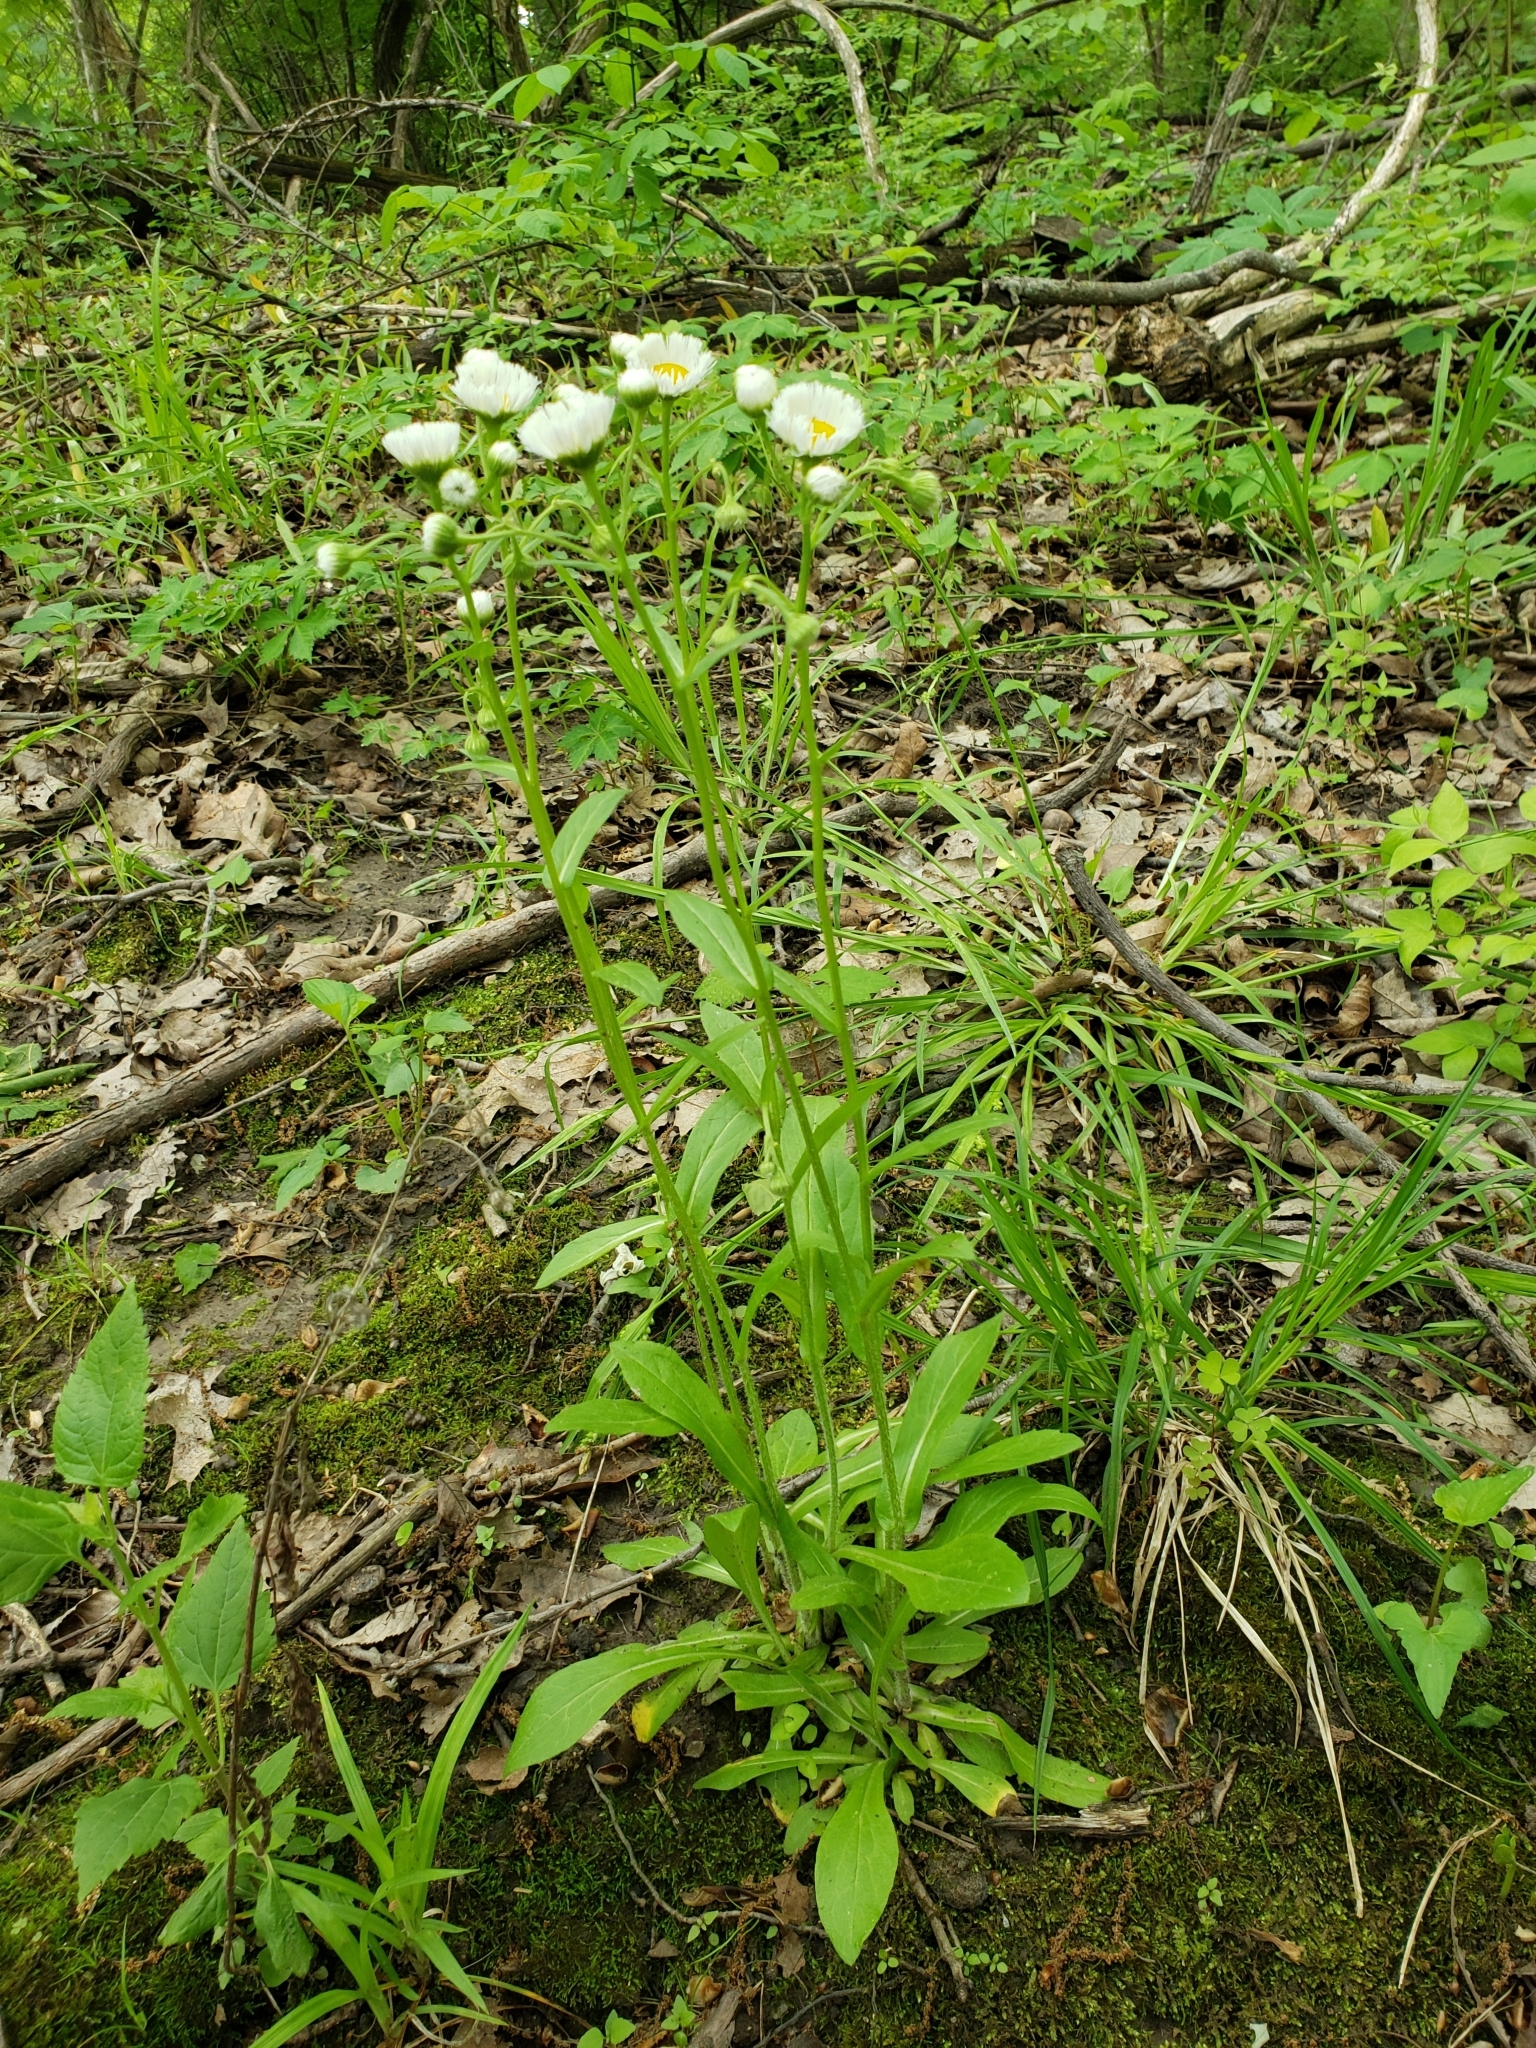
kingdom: Plantae
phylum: Tracheophyta
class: Magnoliopsida
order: Asterales
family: Asteraceae
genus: Erigeron
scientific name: Erigeron philadelphicus
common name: Robin's-plantain
